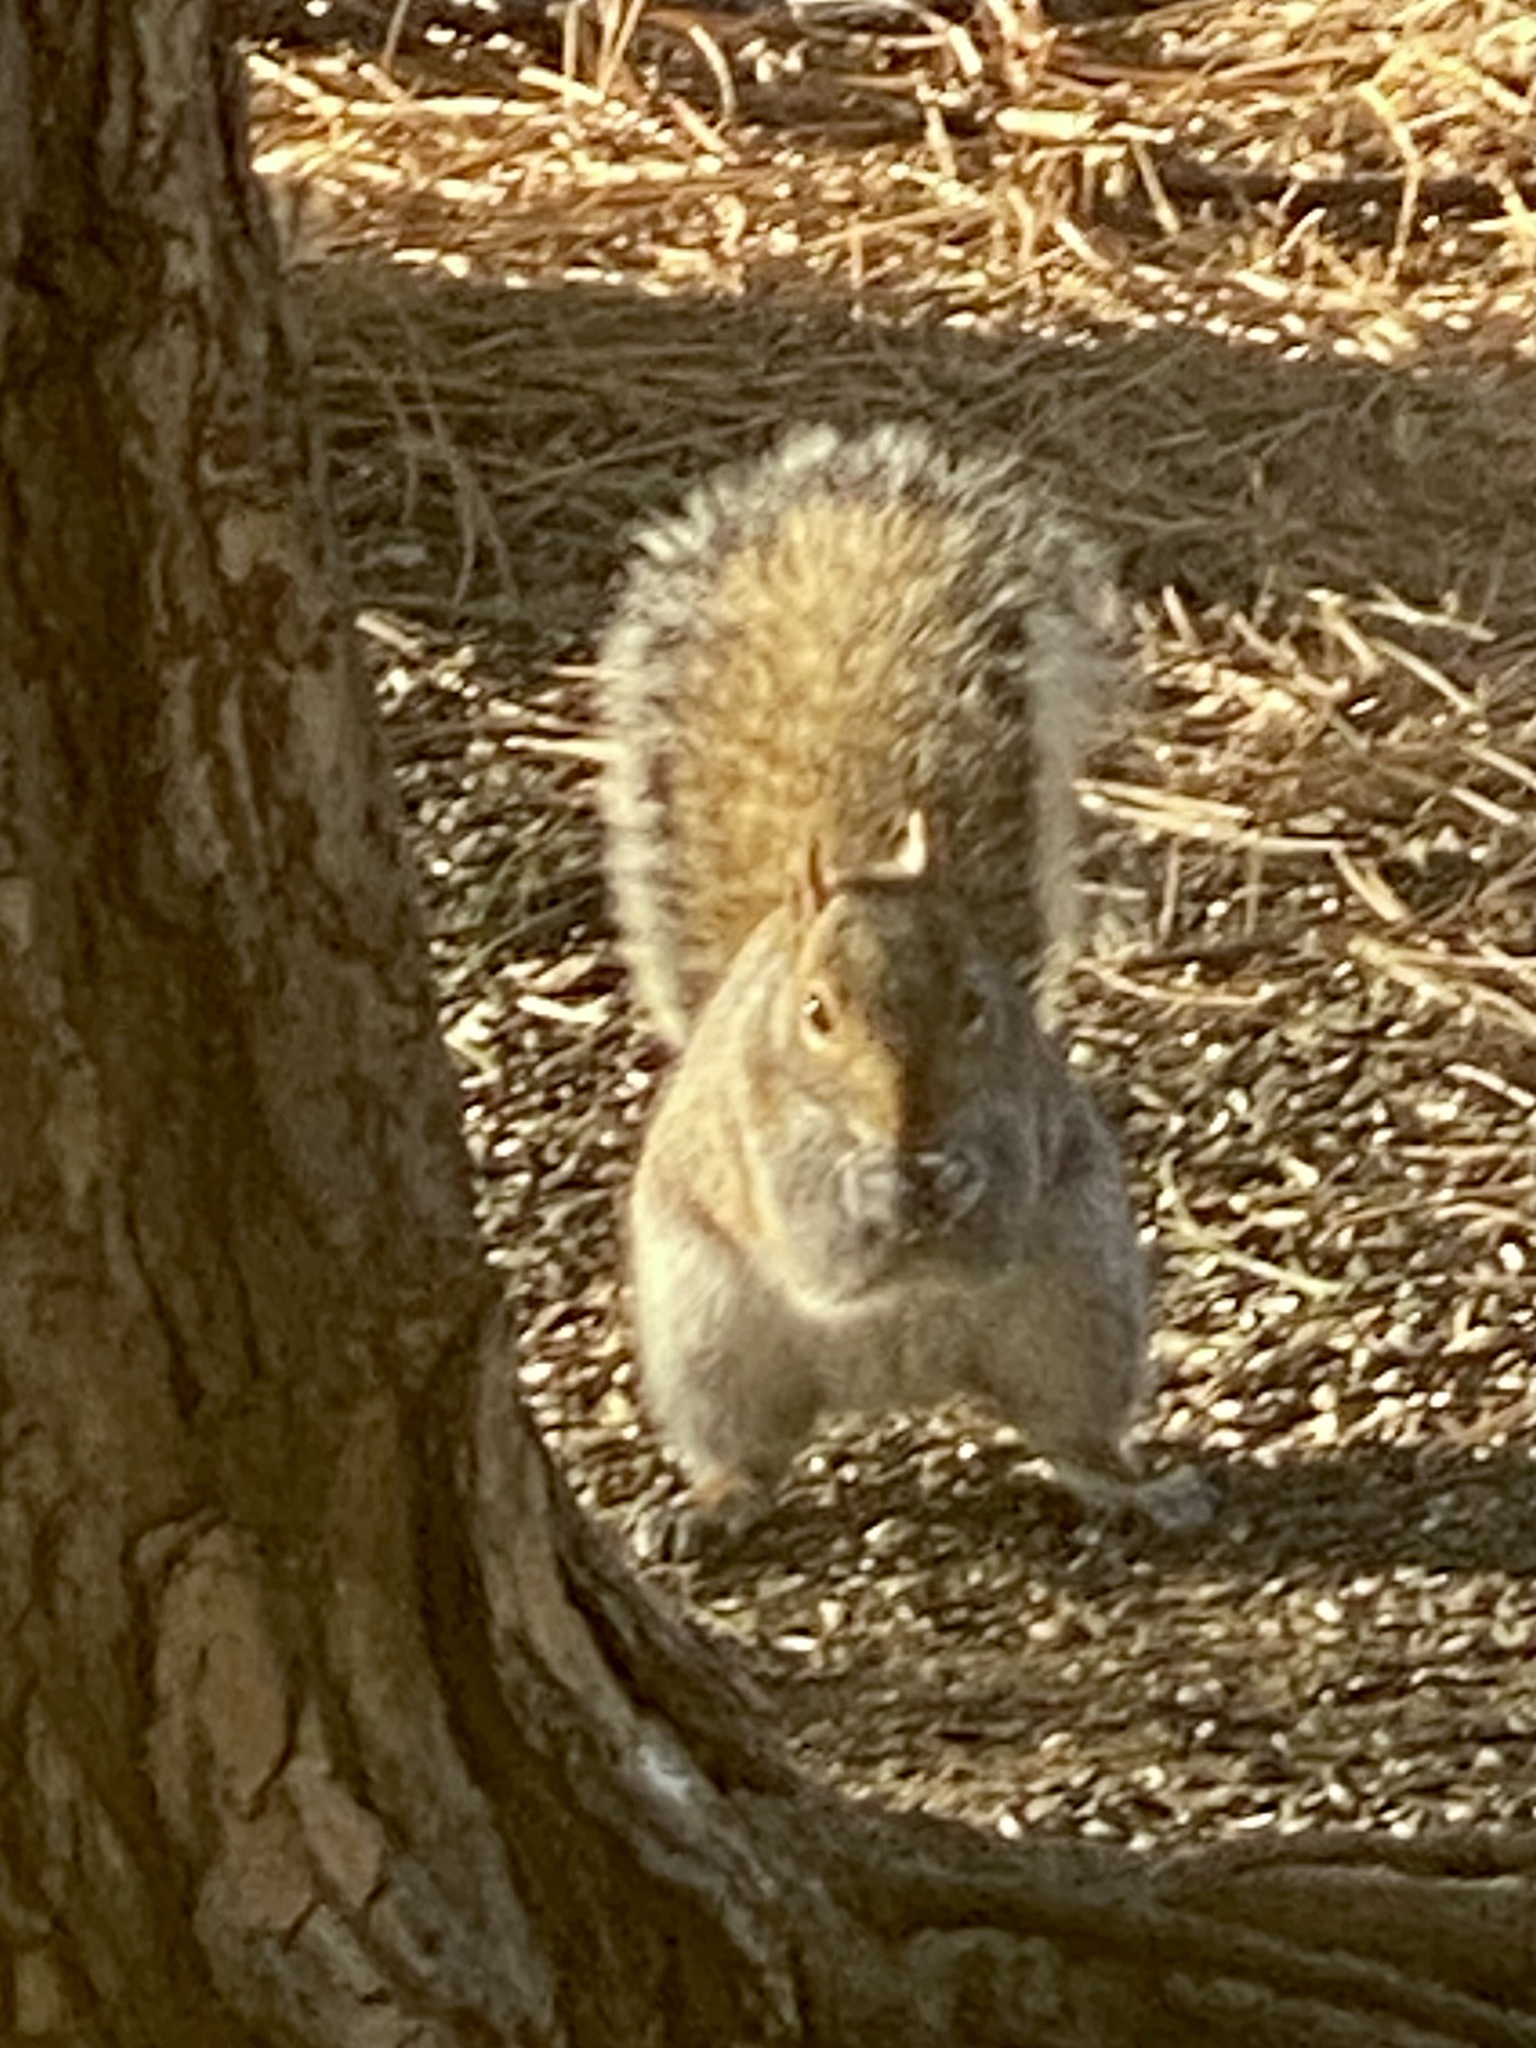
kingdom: Animalia
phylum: Chordata
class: Mammalia
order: Rodentia
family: Sciuridae
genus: Sciurus
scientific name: Sciurus carolinensis
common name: Eastern gray squirrel
